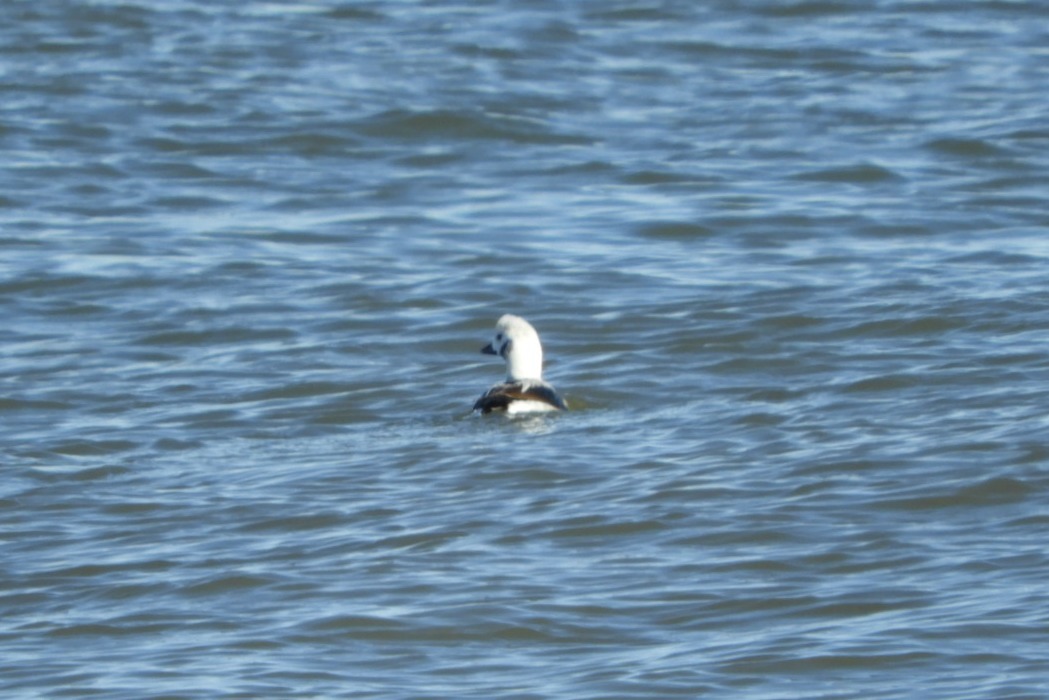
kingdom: Animalia
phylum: Chordata
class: Aves
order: Anseriformes
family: Anatidae
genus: Clangula
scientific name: Clangula hyemalis
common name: Long-tailed duck
